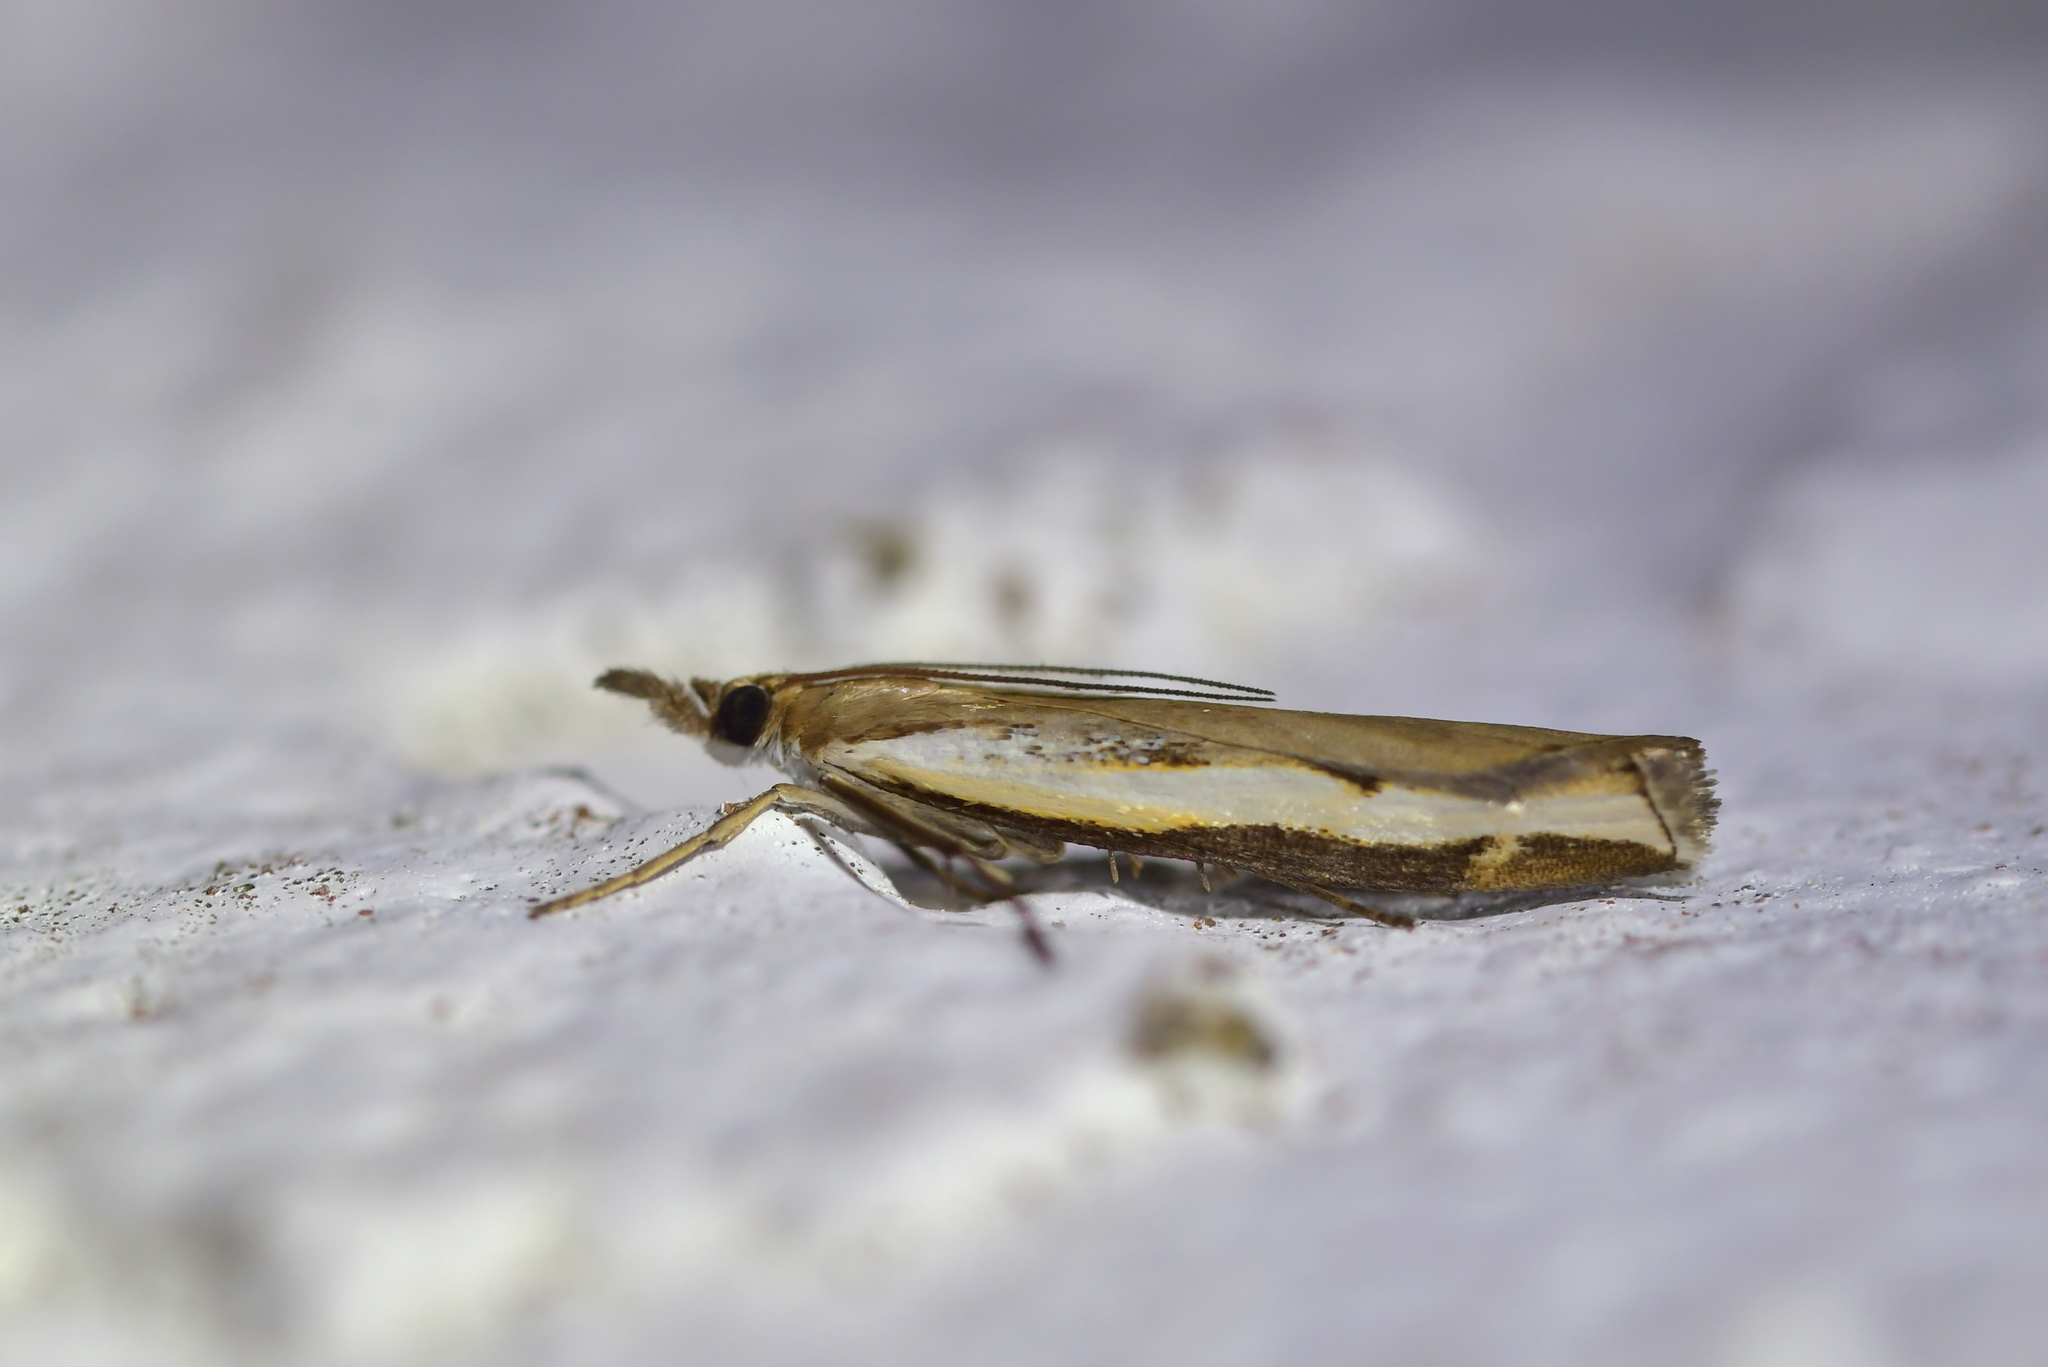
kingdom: Animalia
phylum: Arthropoda
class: Insecta
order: Lepidoptera
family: Crambidae
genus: Orocrambus
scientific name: Orocrambus flexuosellus
